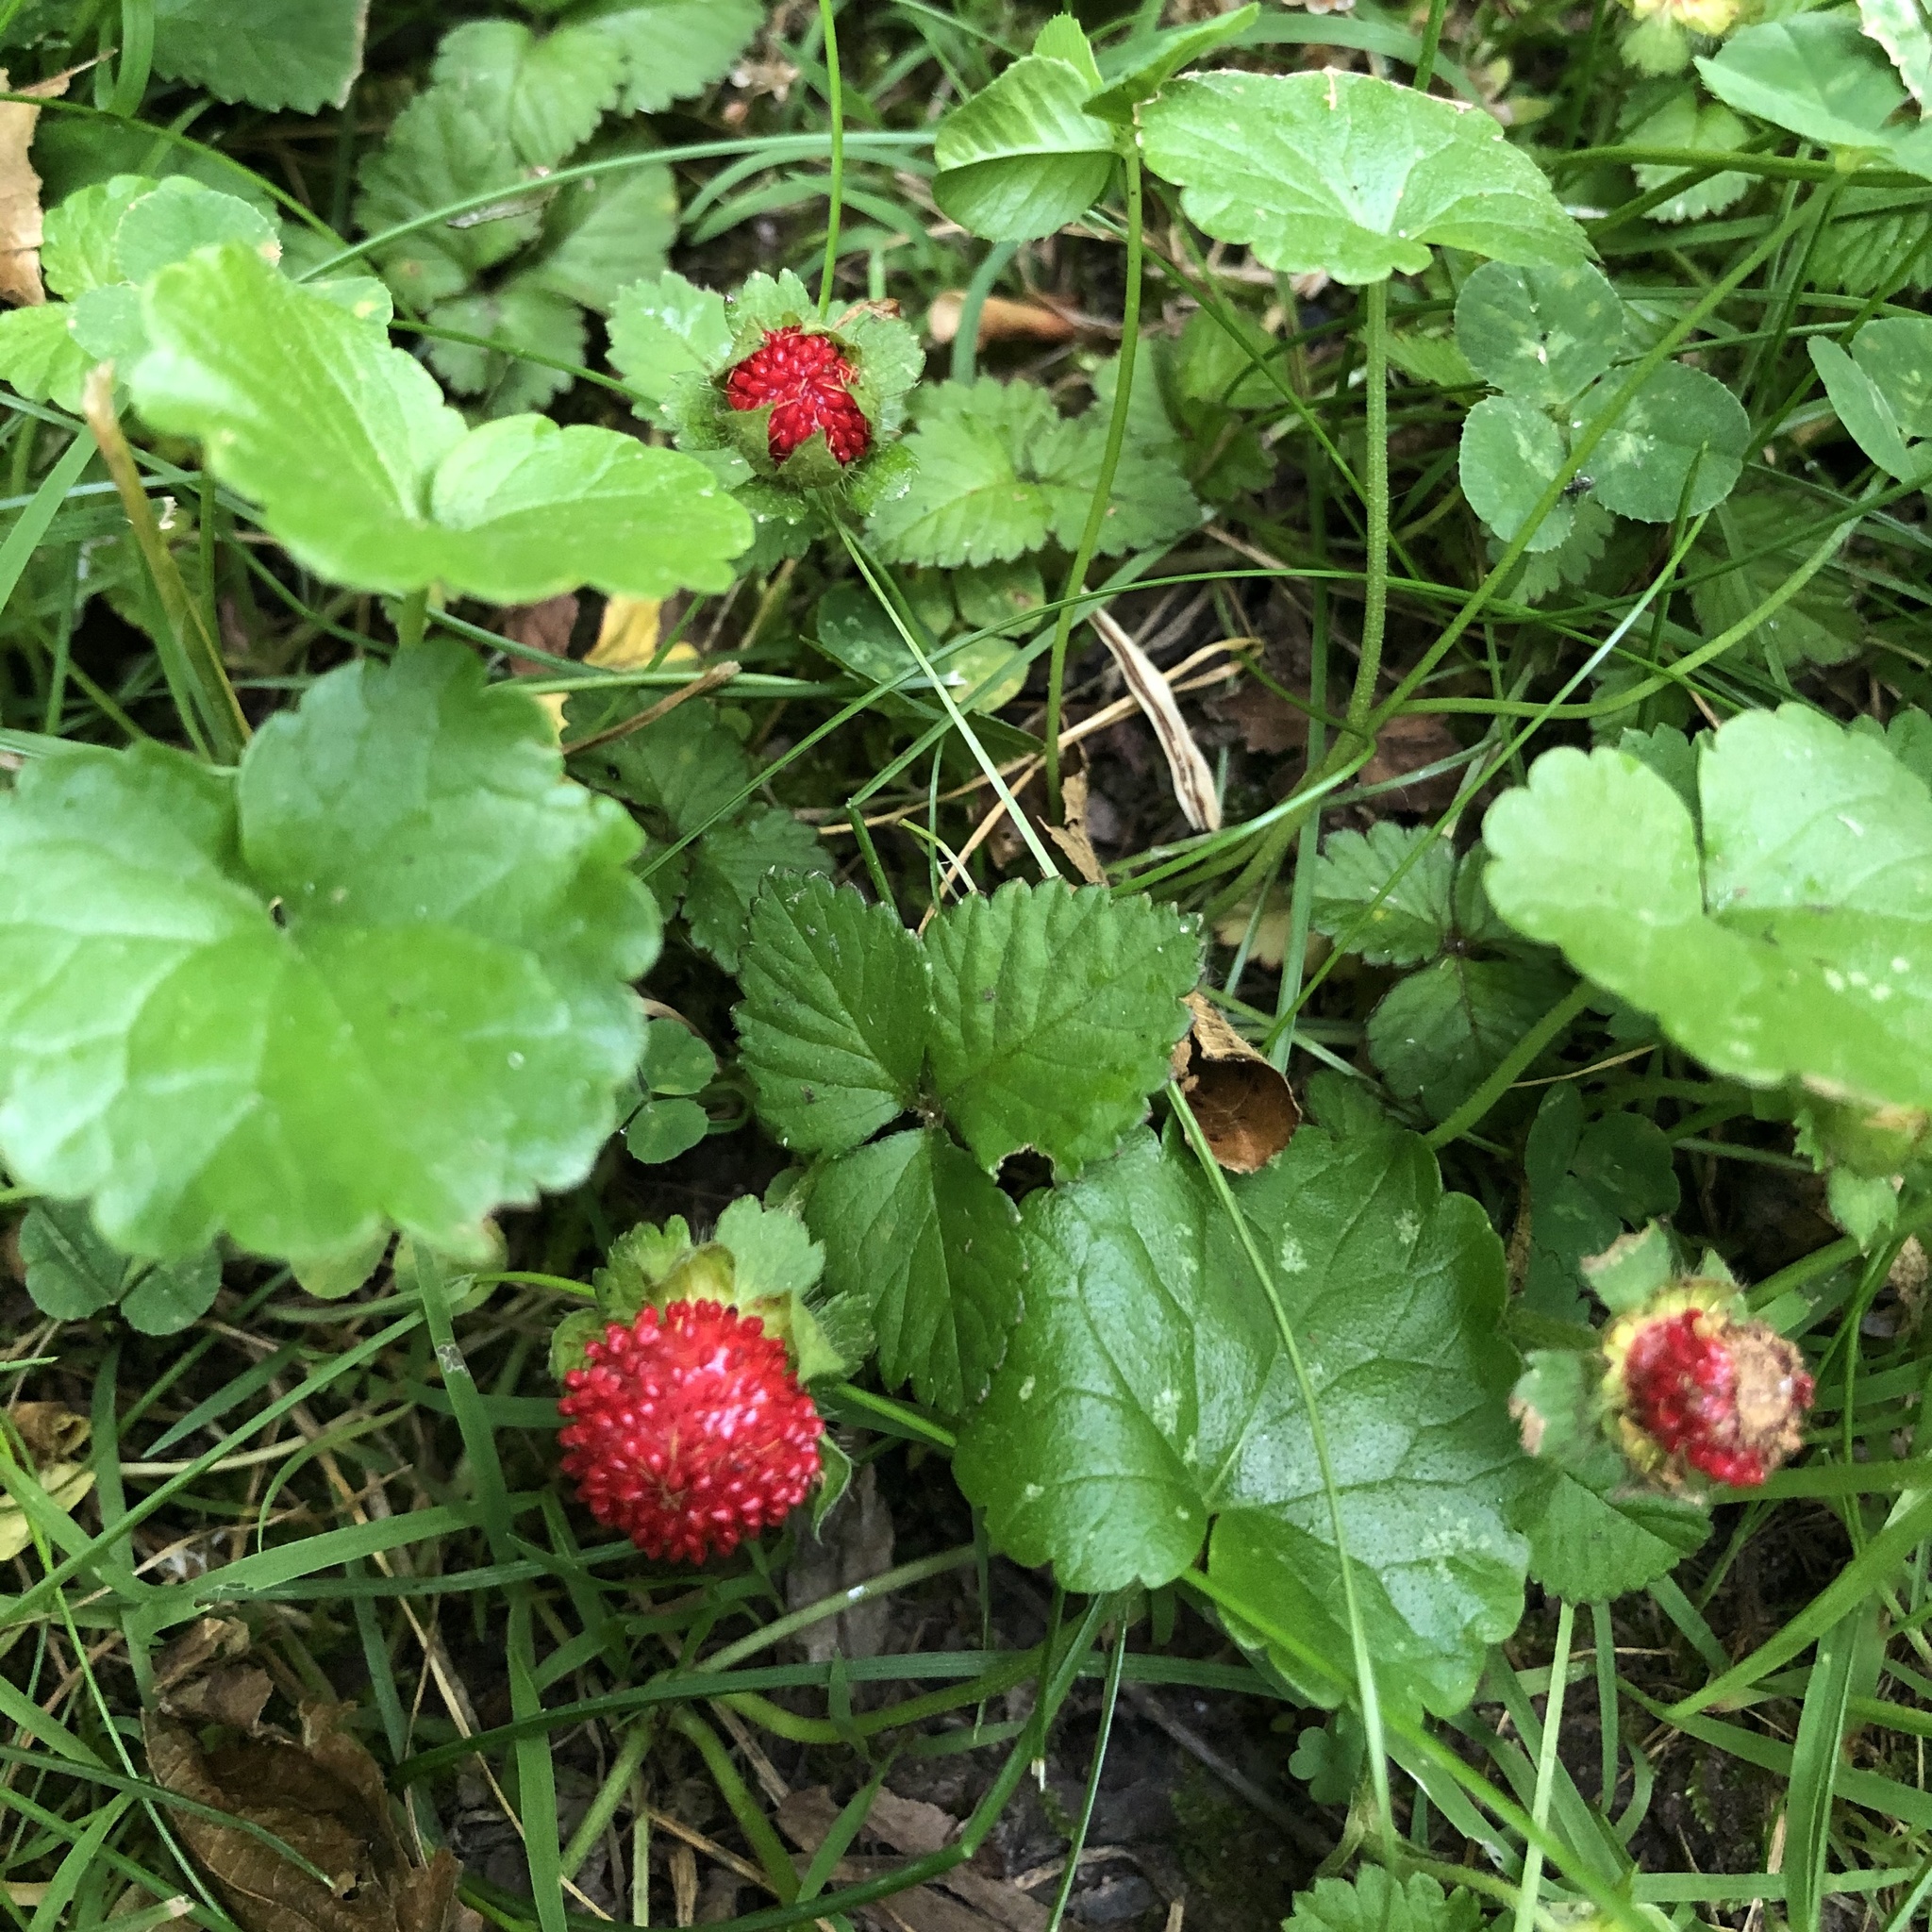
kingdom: Plantae
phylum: Tracheophyta
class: Magnoliopsida
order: Rosales
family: Rosaceae
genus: Potentilla
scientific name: Potentilla indica
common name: Yellow-flowered strawberry
